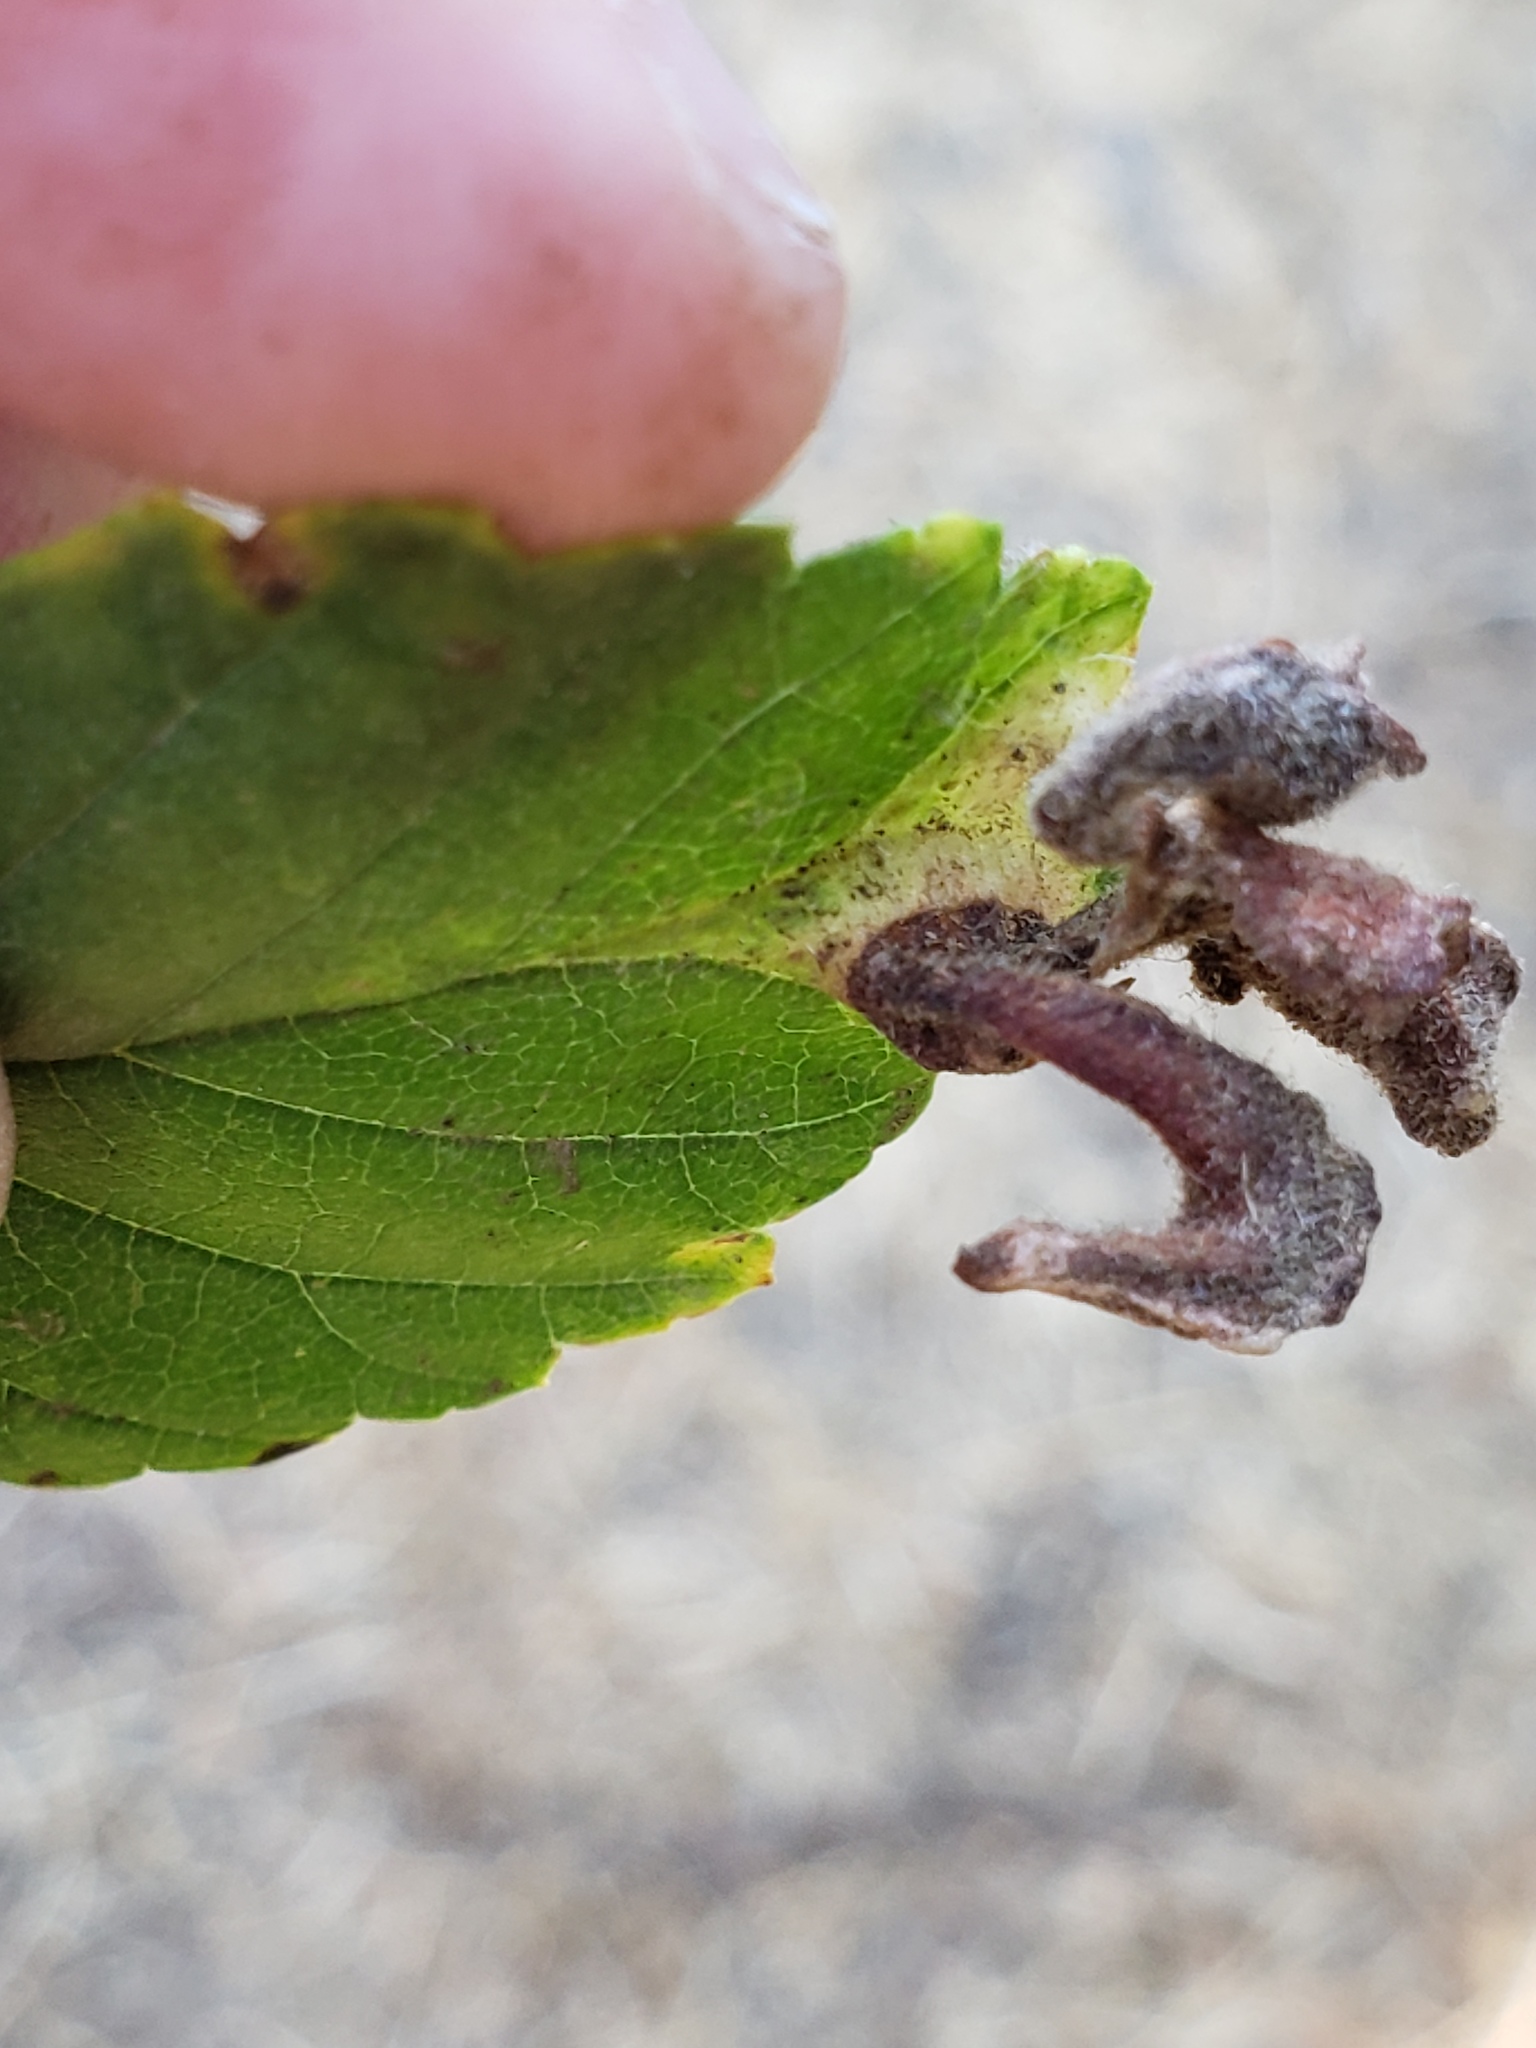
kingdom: Animalia
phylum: Arthropoda
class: Insecta
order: Hemiptera
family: Aphididae
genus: Tetraneura
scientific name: Tetraneura nigriabdominalis
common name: Aphid
